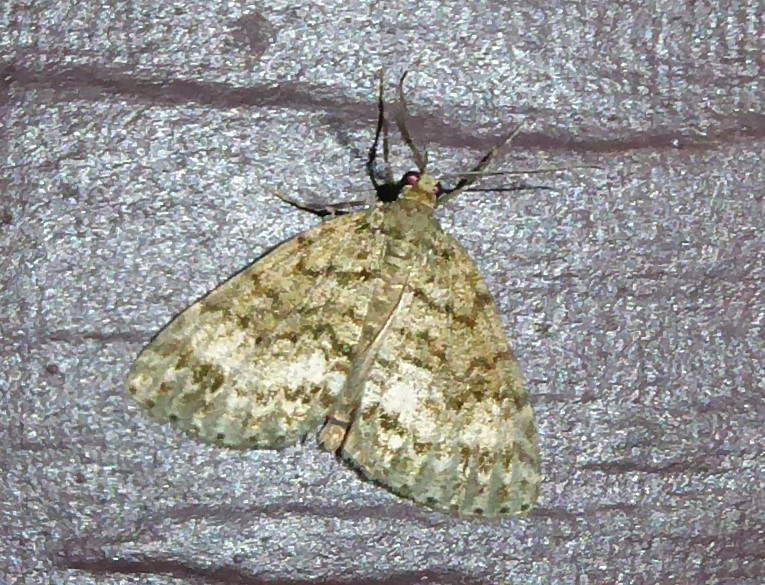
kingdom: Animalia
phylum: Arthropoda
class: Insecta
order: Lepidoptera
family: Geometridae
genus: Pseudocoremia
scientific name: Pseudocoremia indistincta
